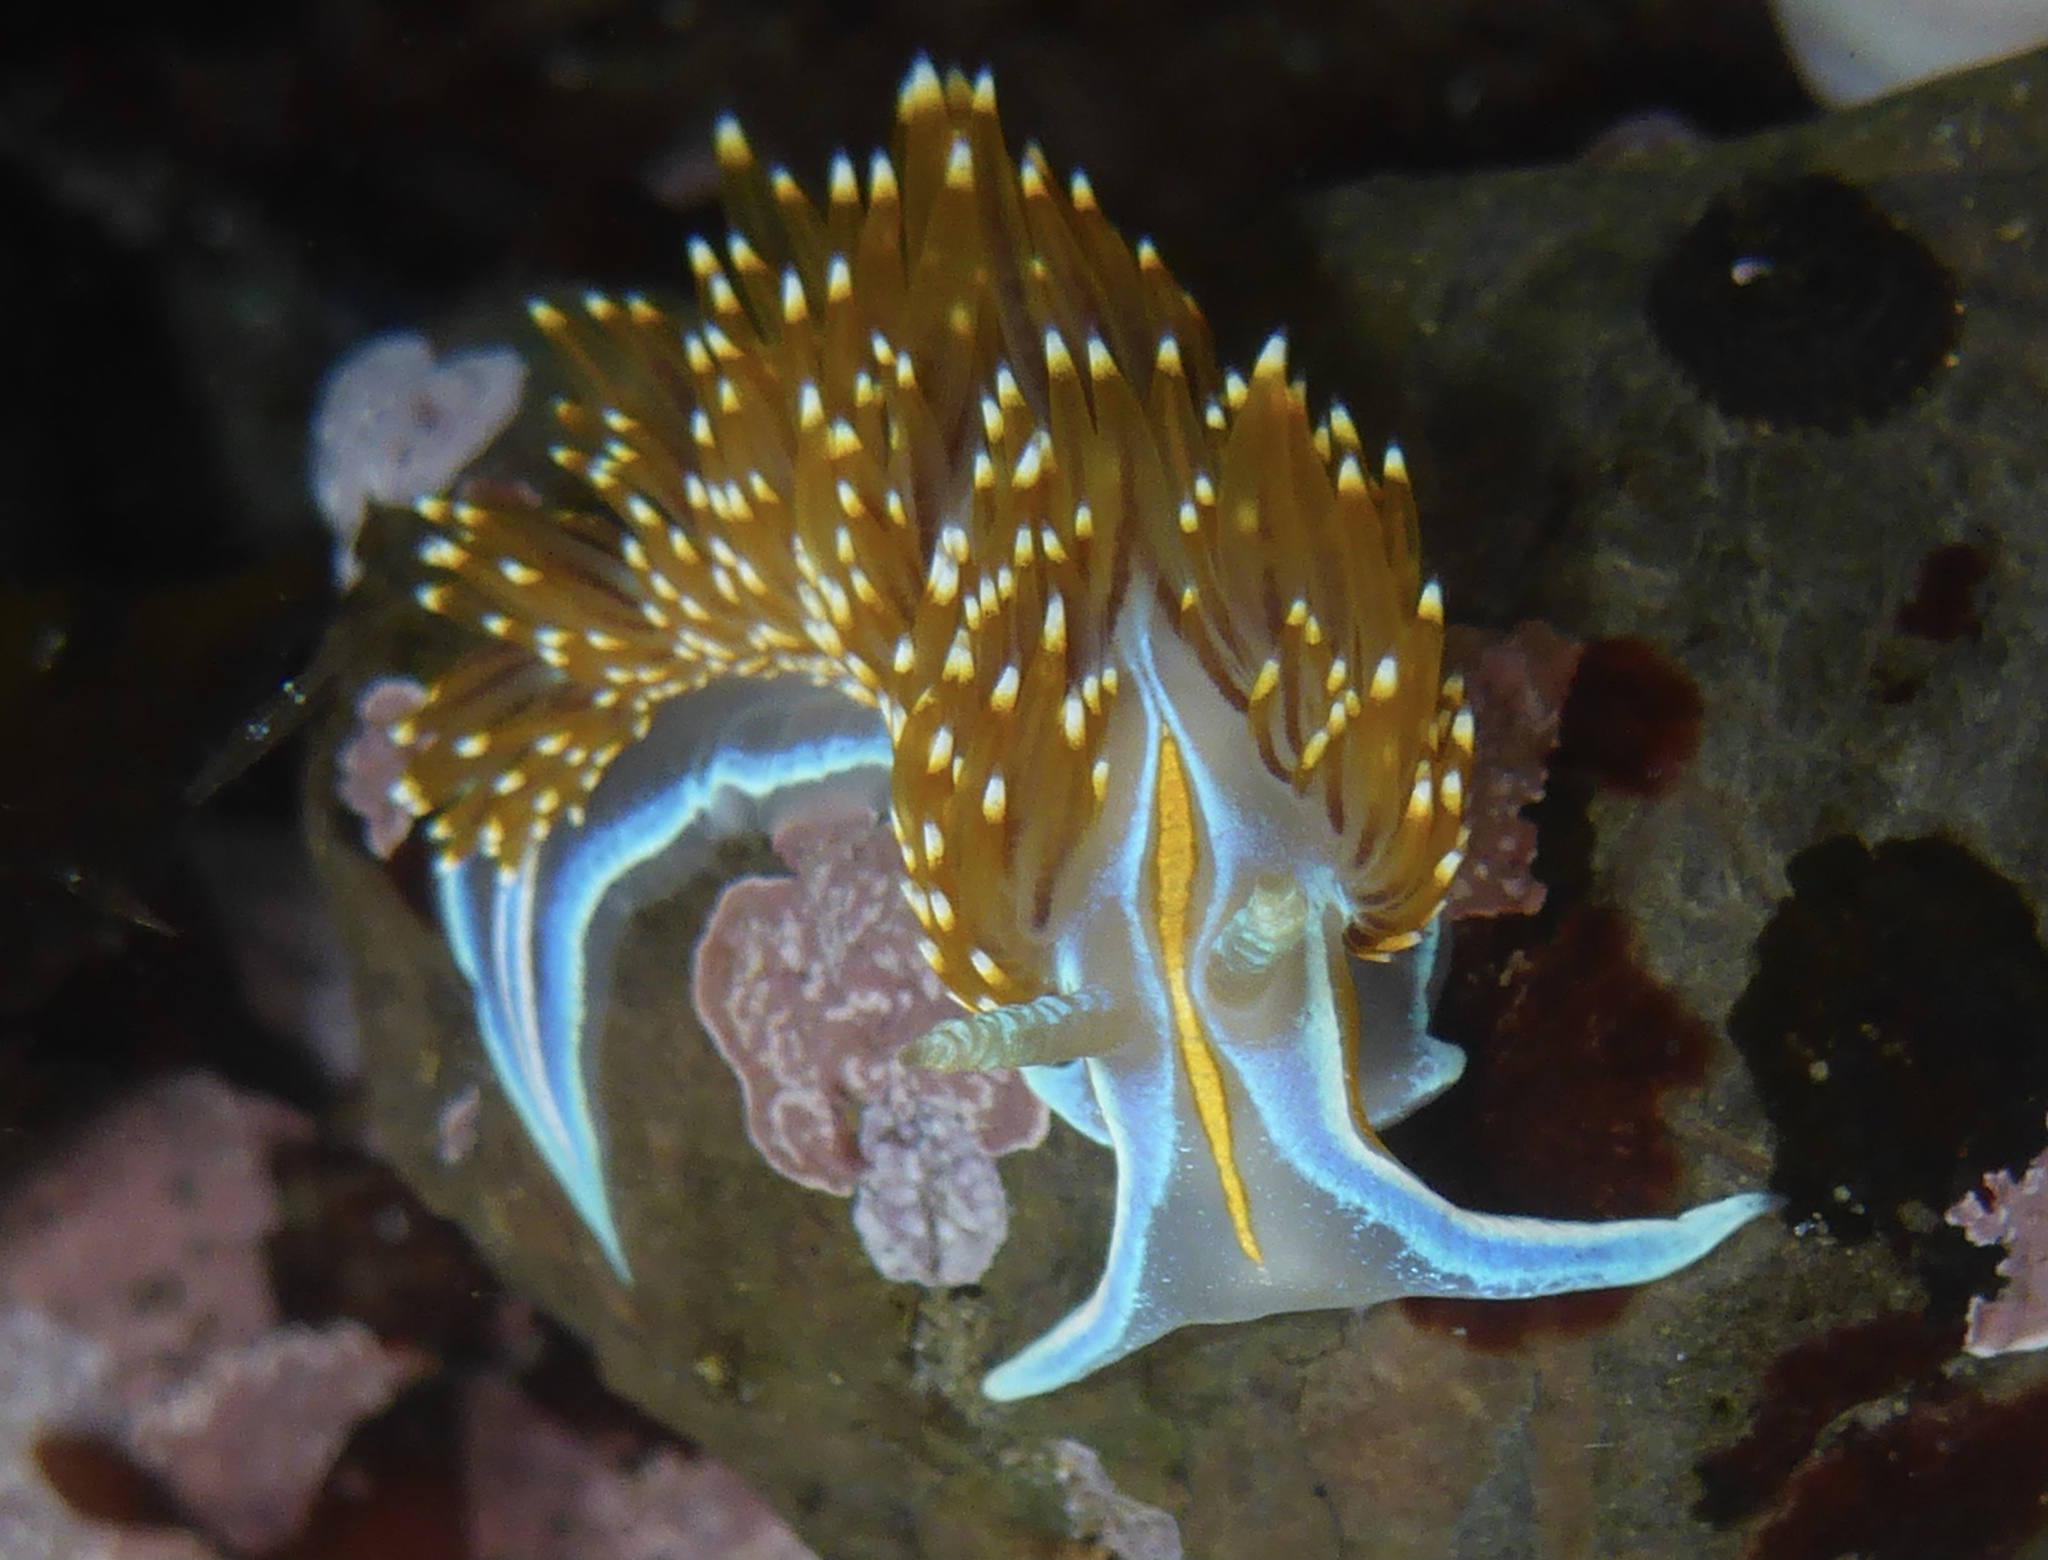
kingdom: Animalia
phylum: Mollusca
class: Gastropoda
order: Nudibranchia
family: Myrrhinidae
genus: Hermissenda
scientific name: Hermissenda opalescens
